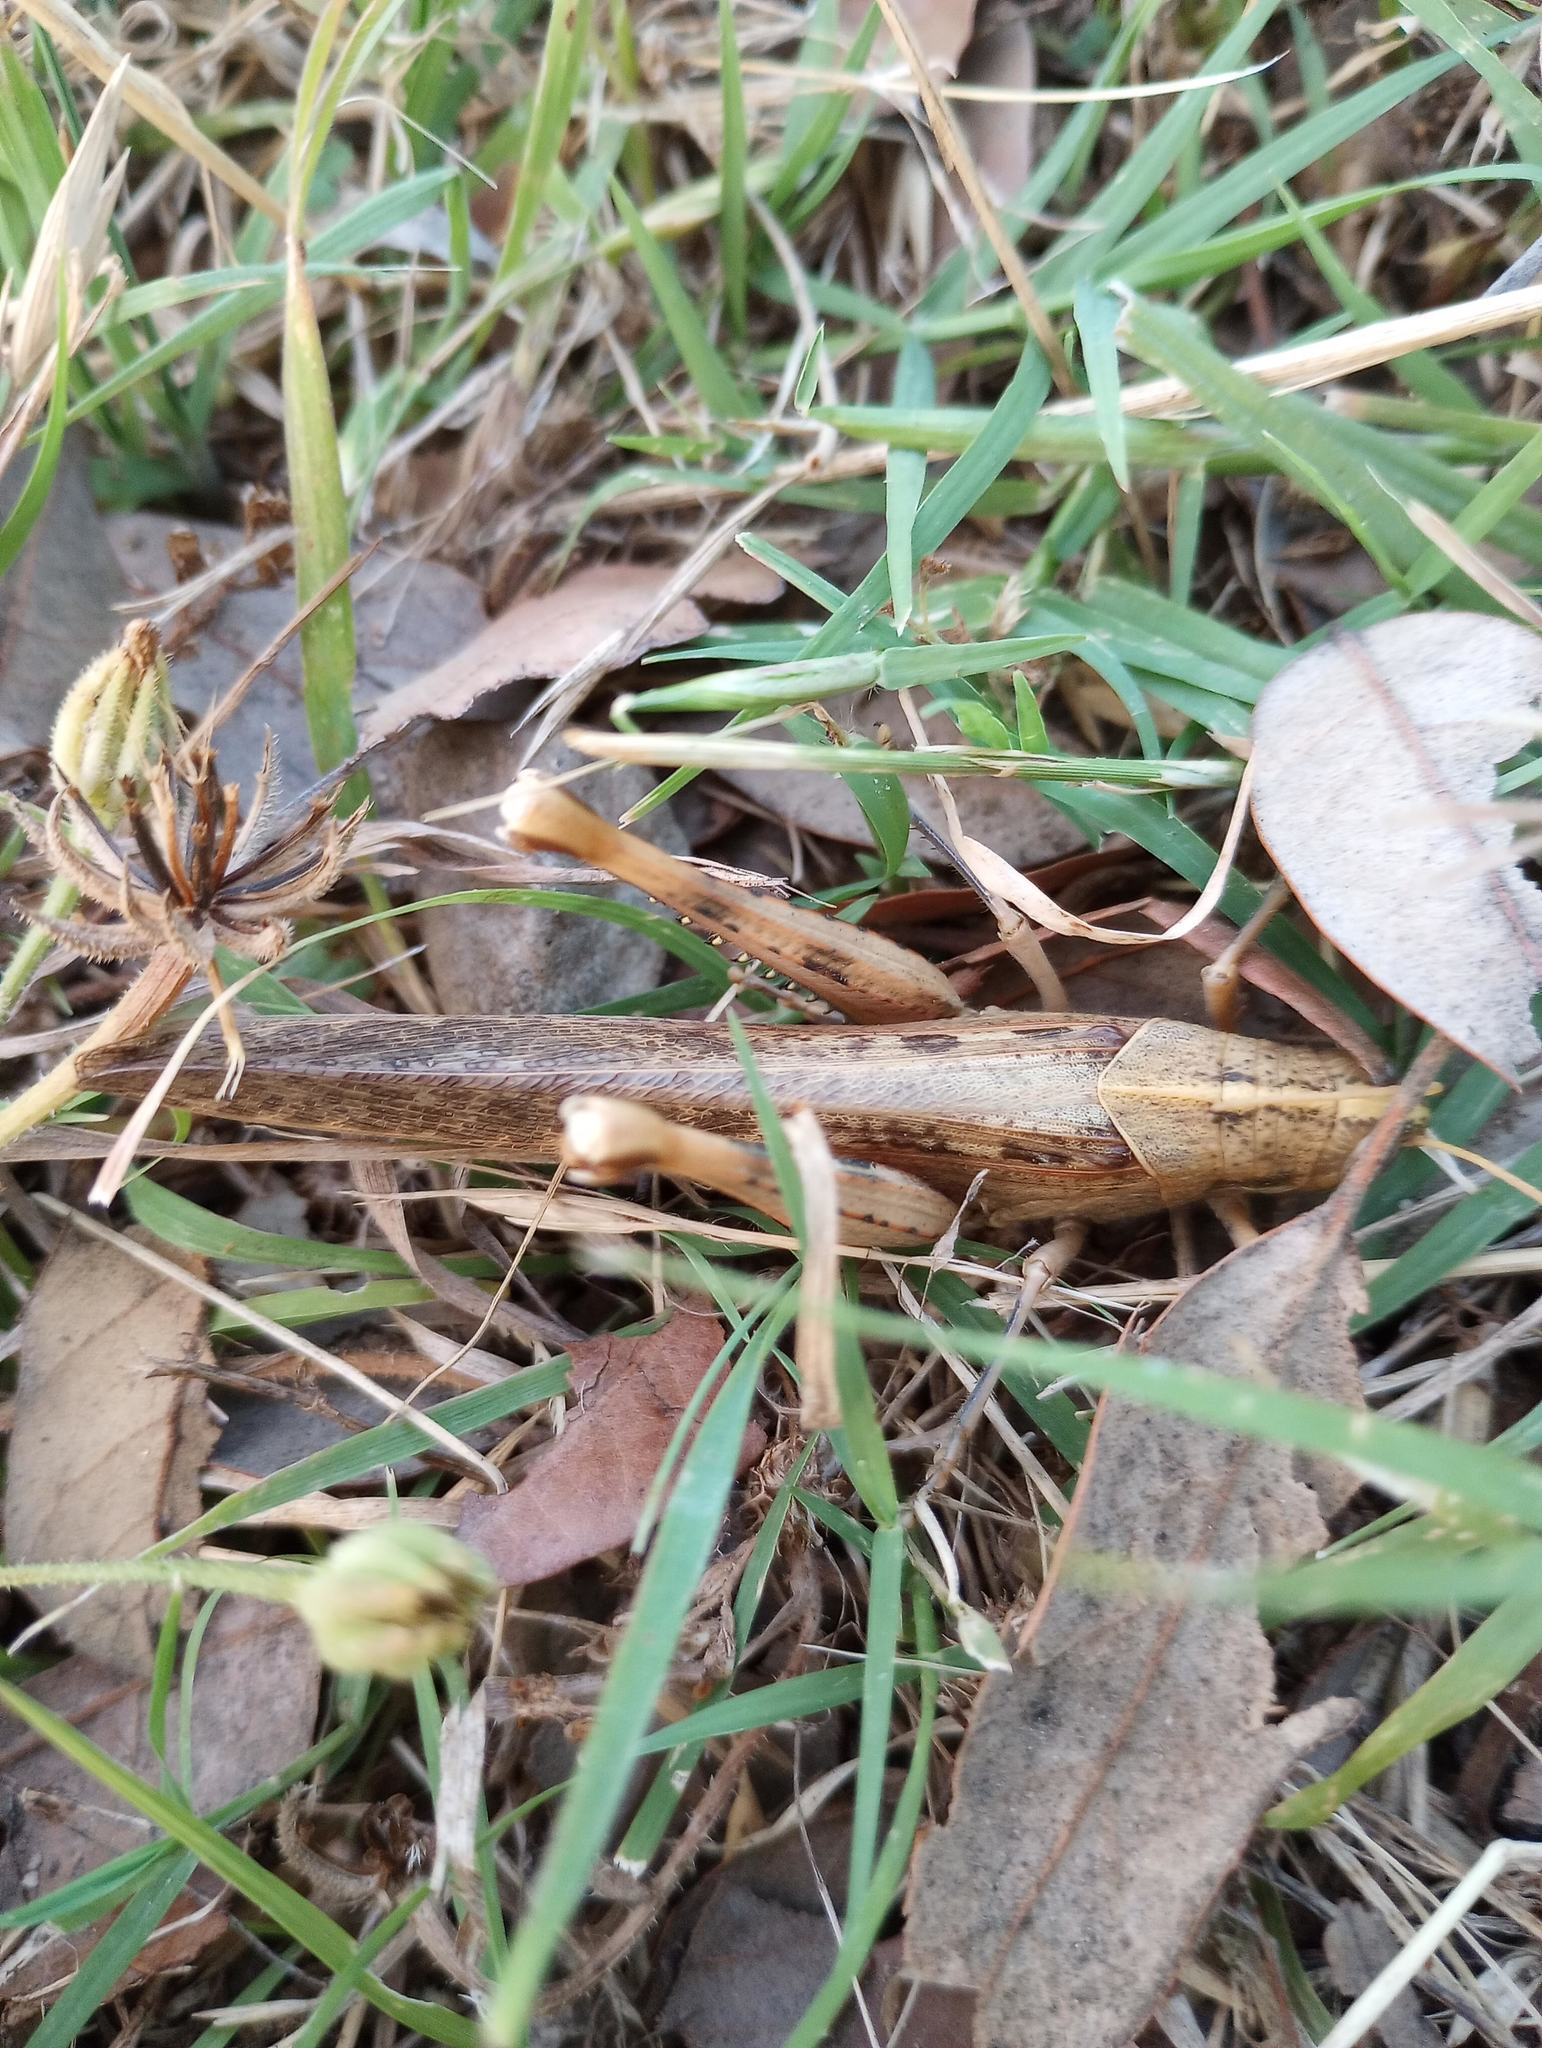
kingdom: Animalia
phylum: Arthropoda
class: Insecta
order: Orthoptera
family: Acrididae
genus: Schistocerca
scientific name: Schistocerca nitens
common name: Vagrant grasshopper
